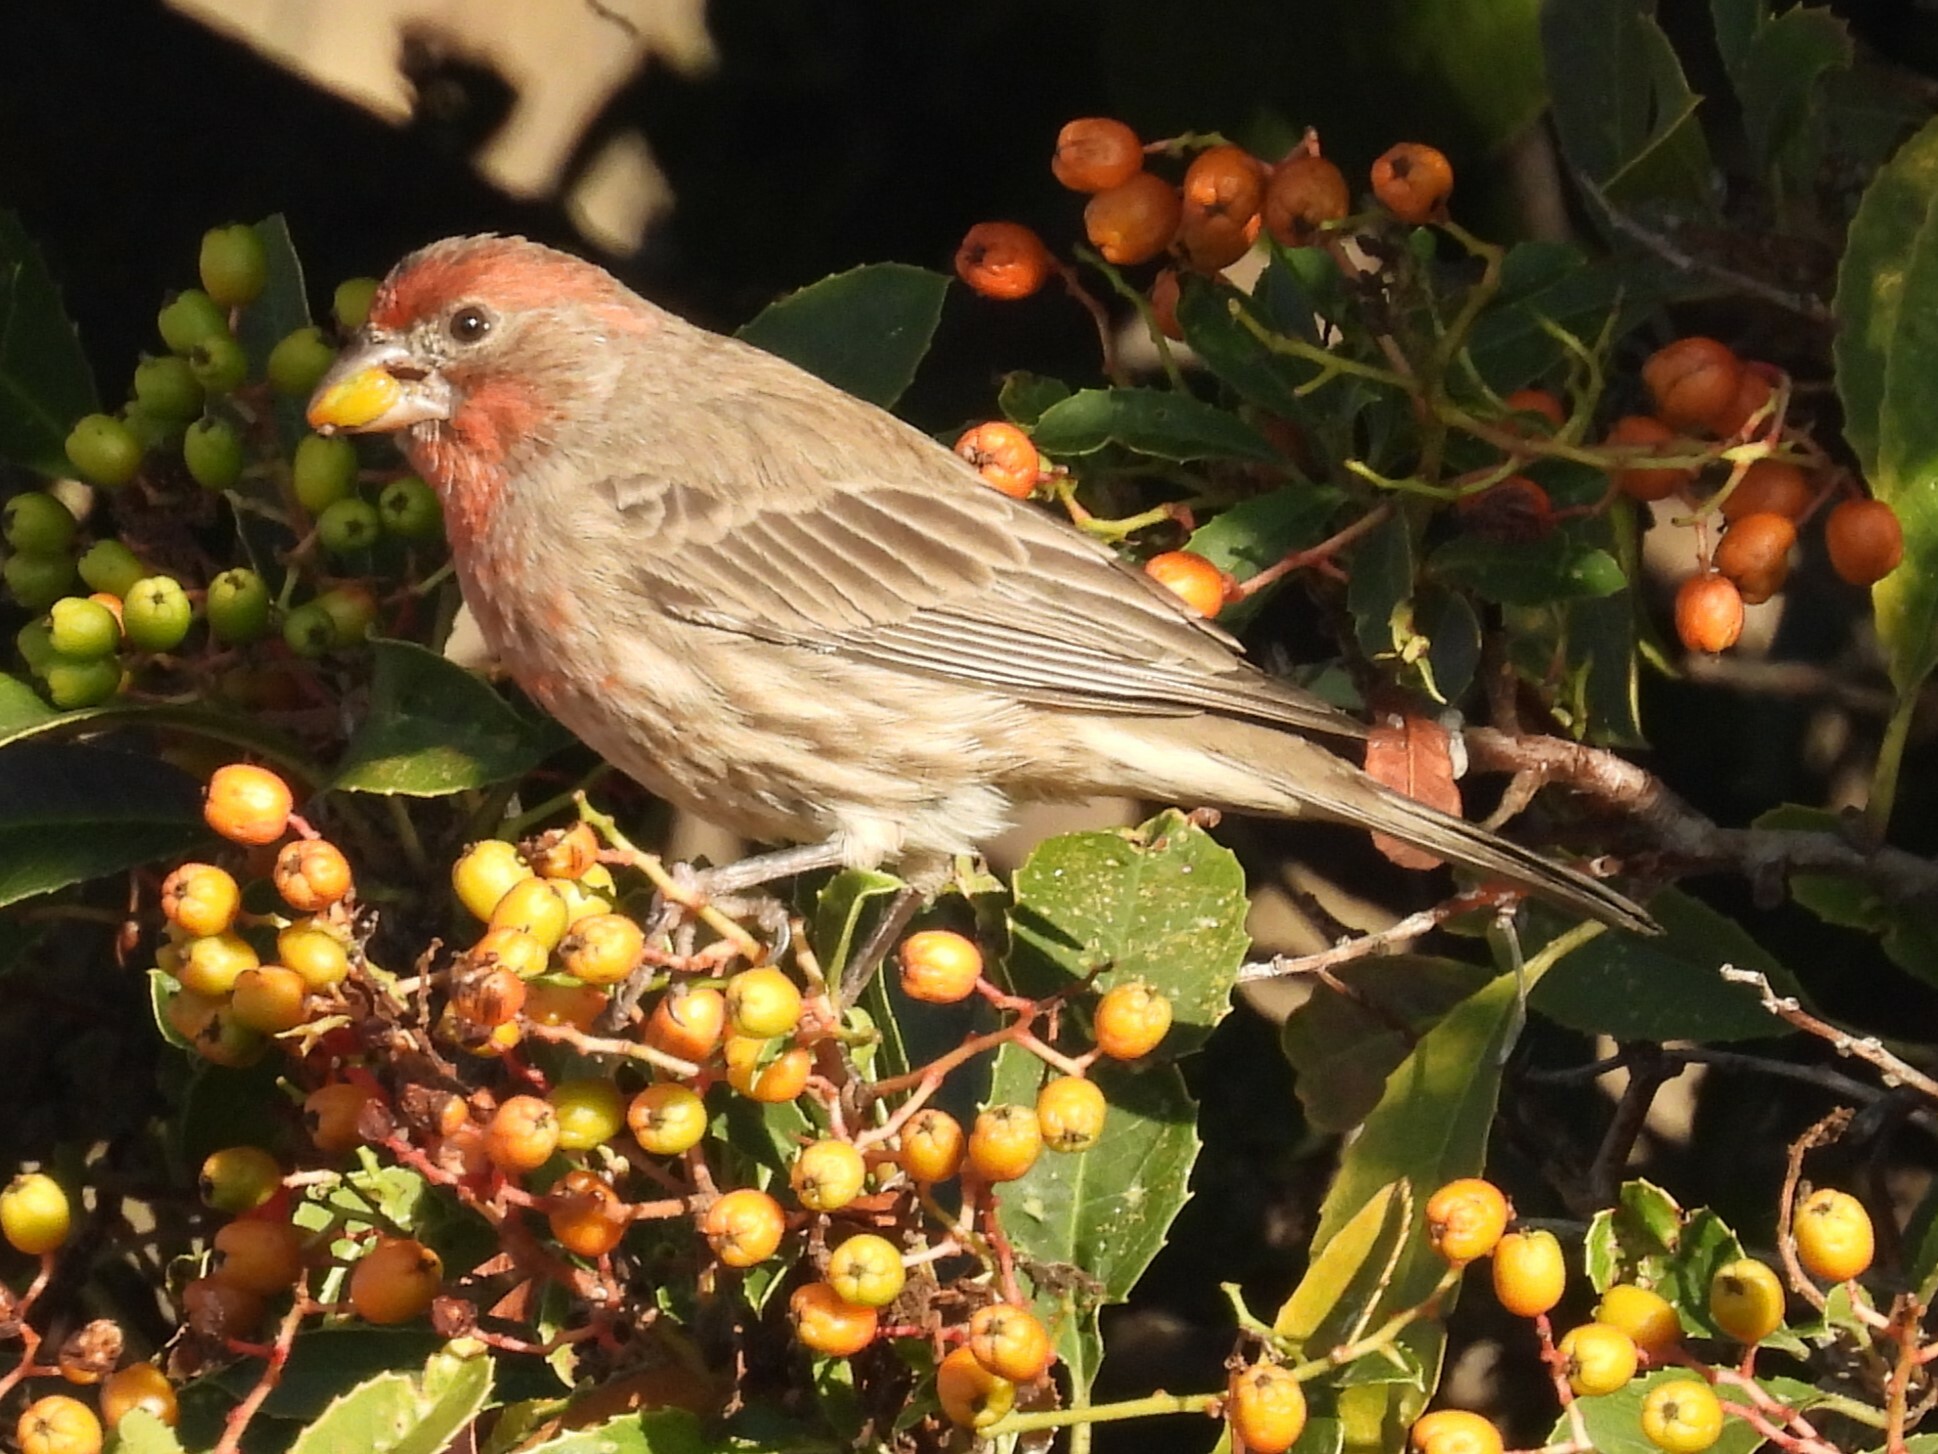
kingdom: Animalia
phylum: Chordata
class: Aves
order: Passeriformes
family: Fringillidae
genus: Haemorhous
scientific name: Haemorhous mexicanus
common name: House finch
